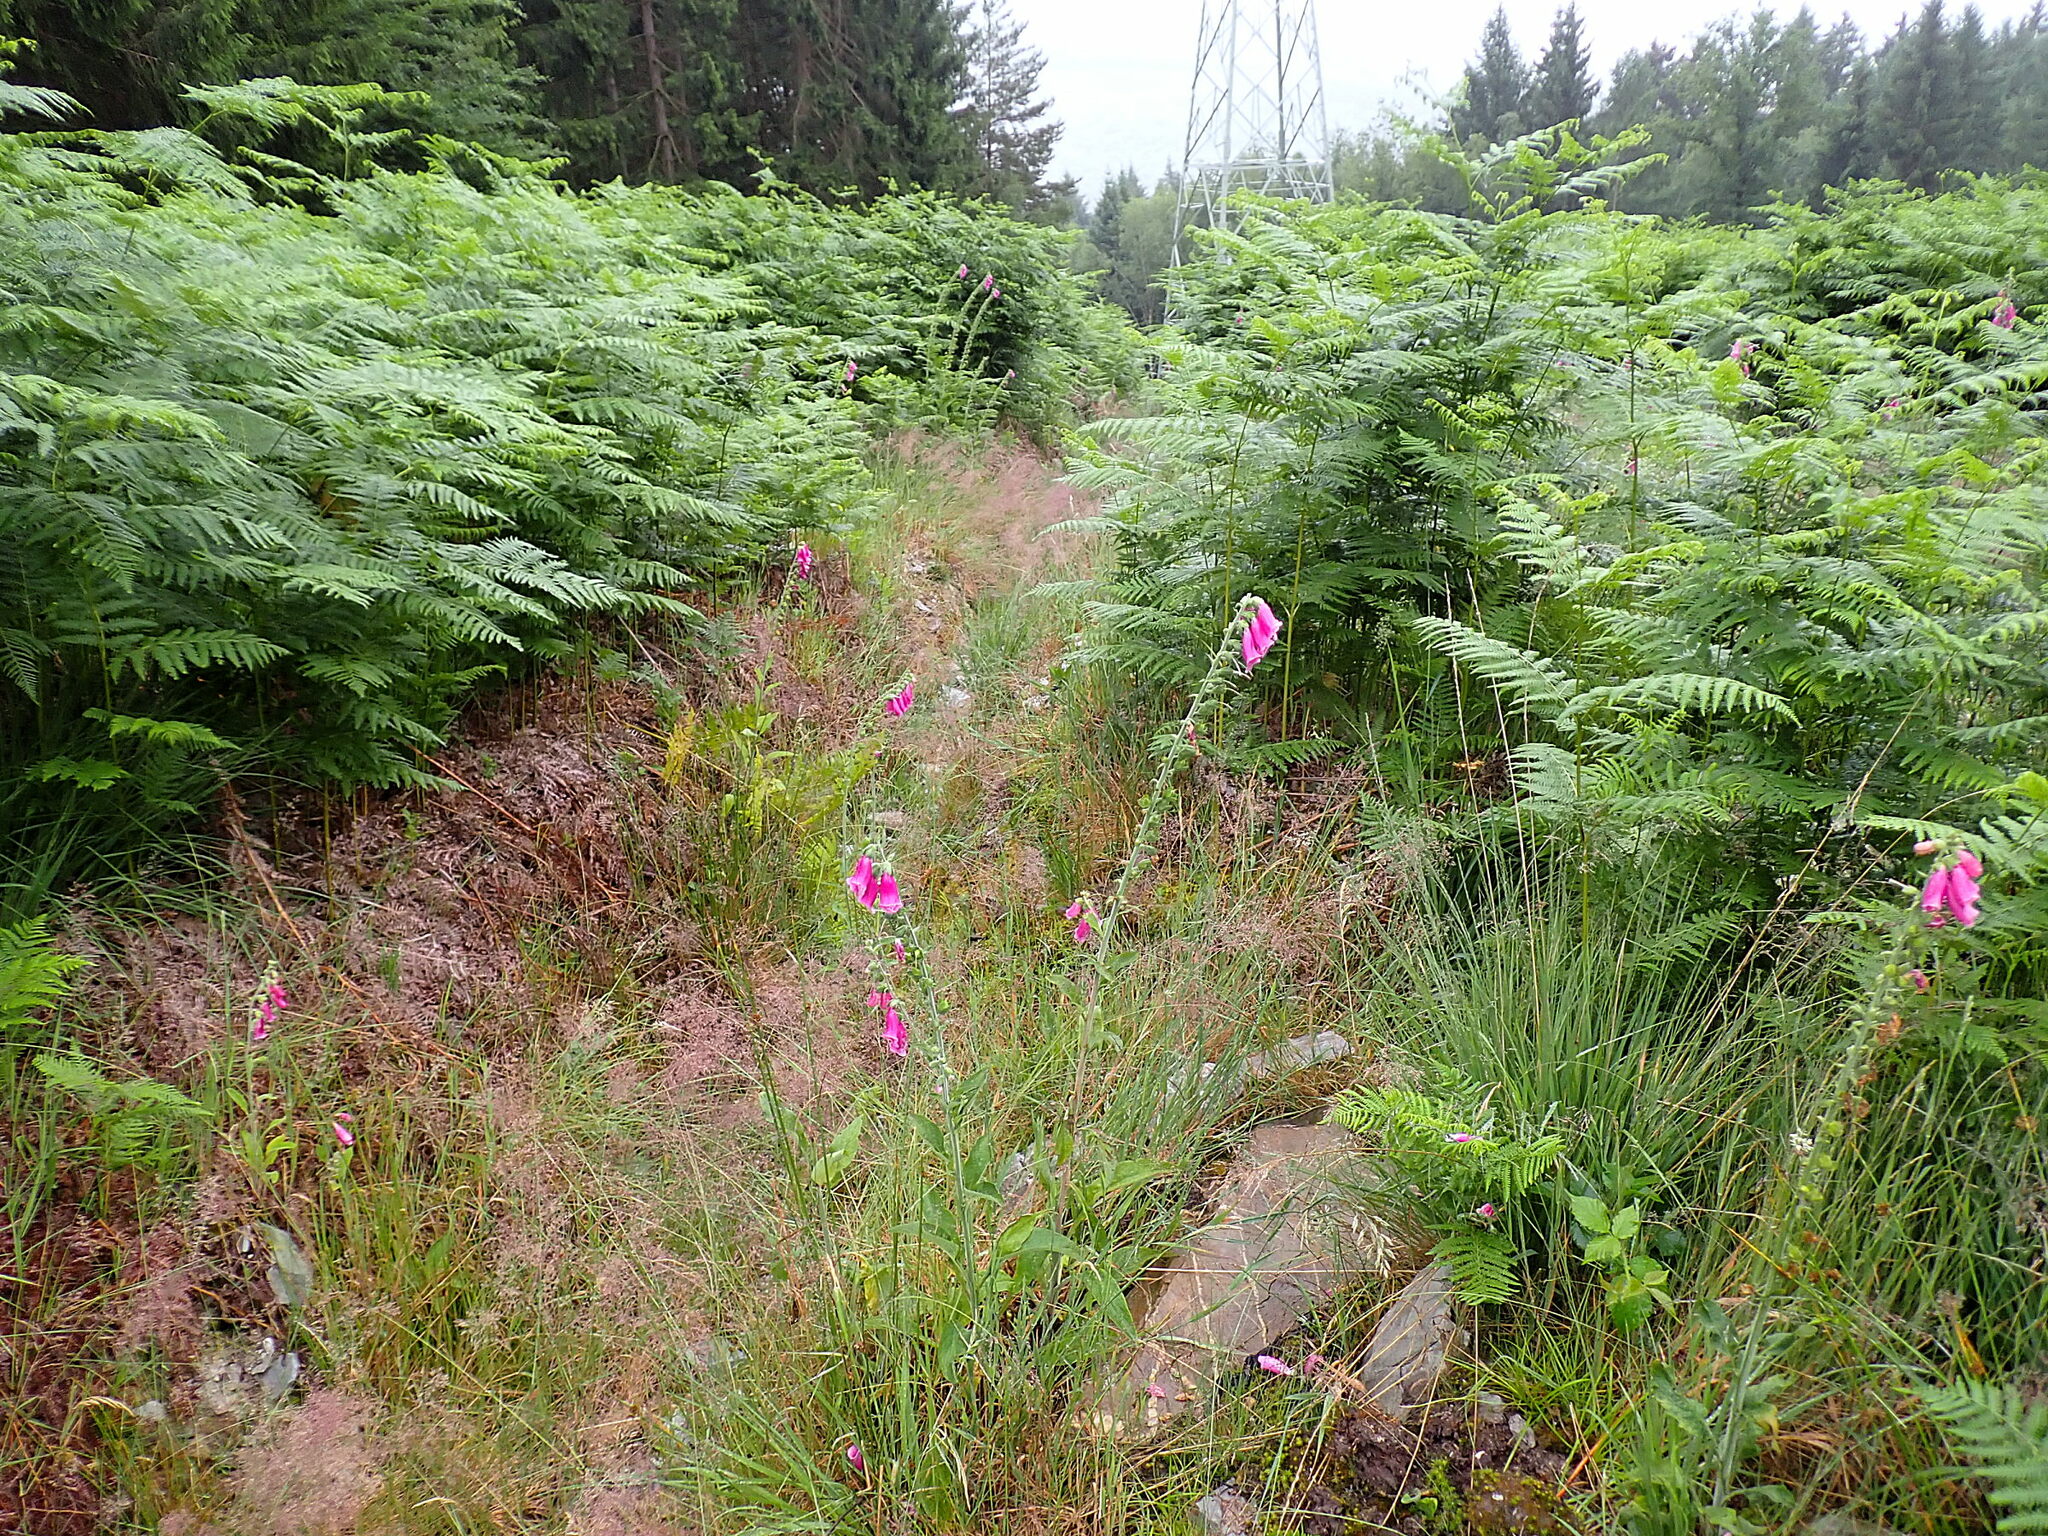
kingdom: Plantae
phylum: Tracheophyta
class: Magnoliopsida
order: Lamiales
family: Plantaginaceae
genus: Digitalis
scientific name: Digitalis purpurea
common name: Foxglove
